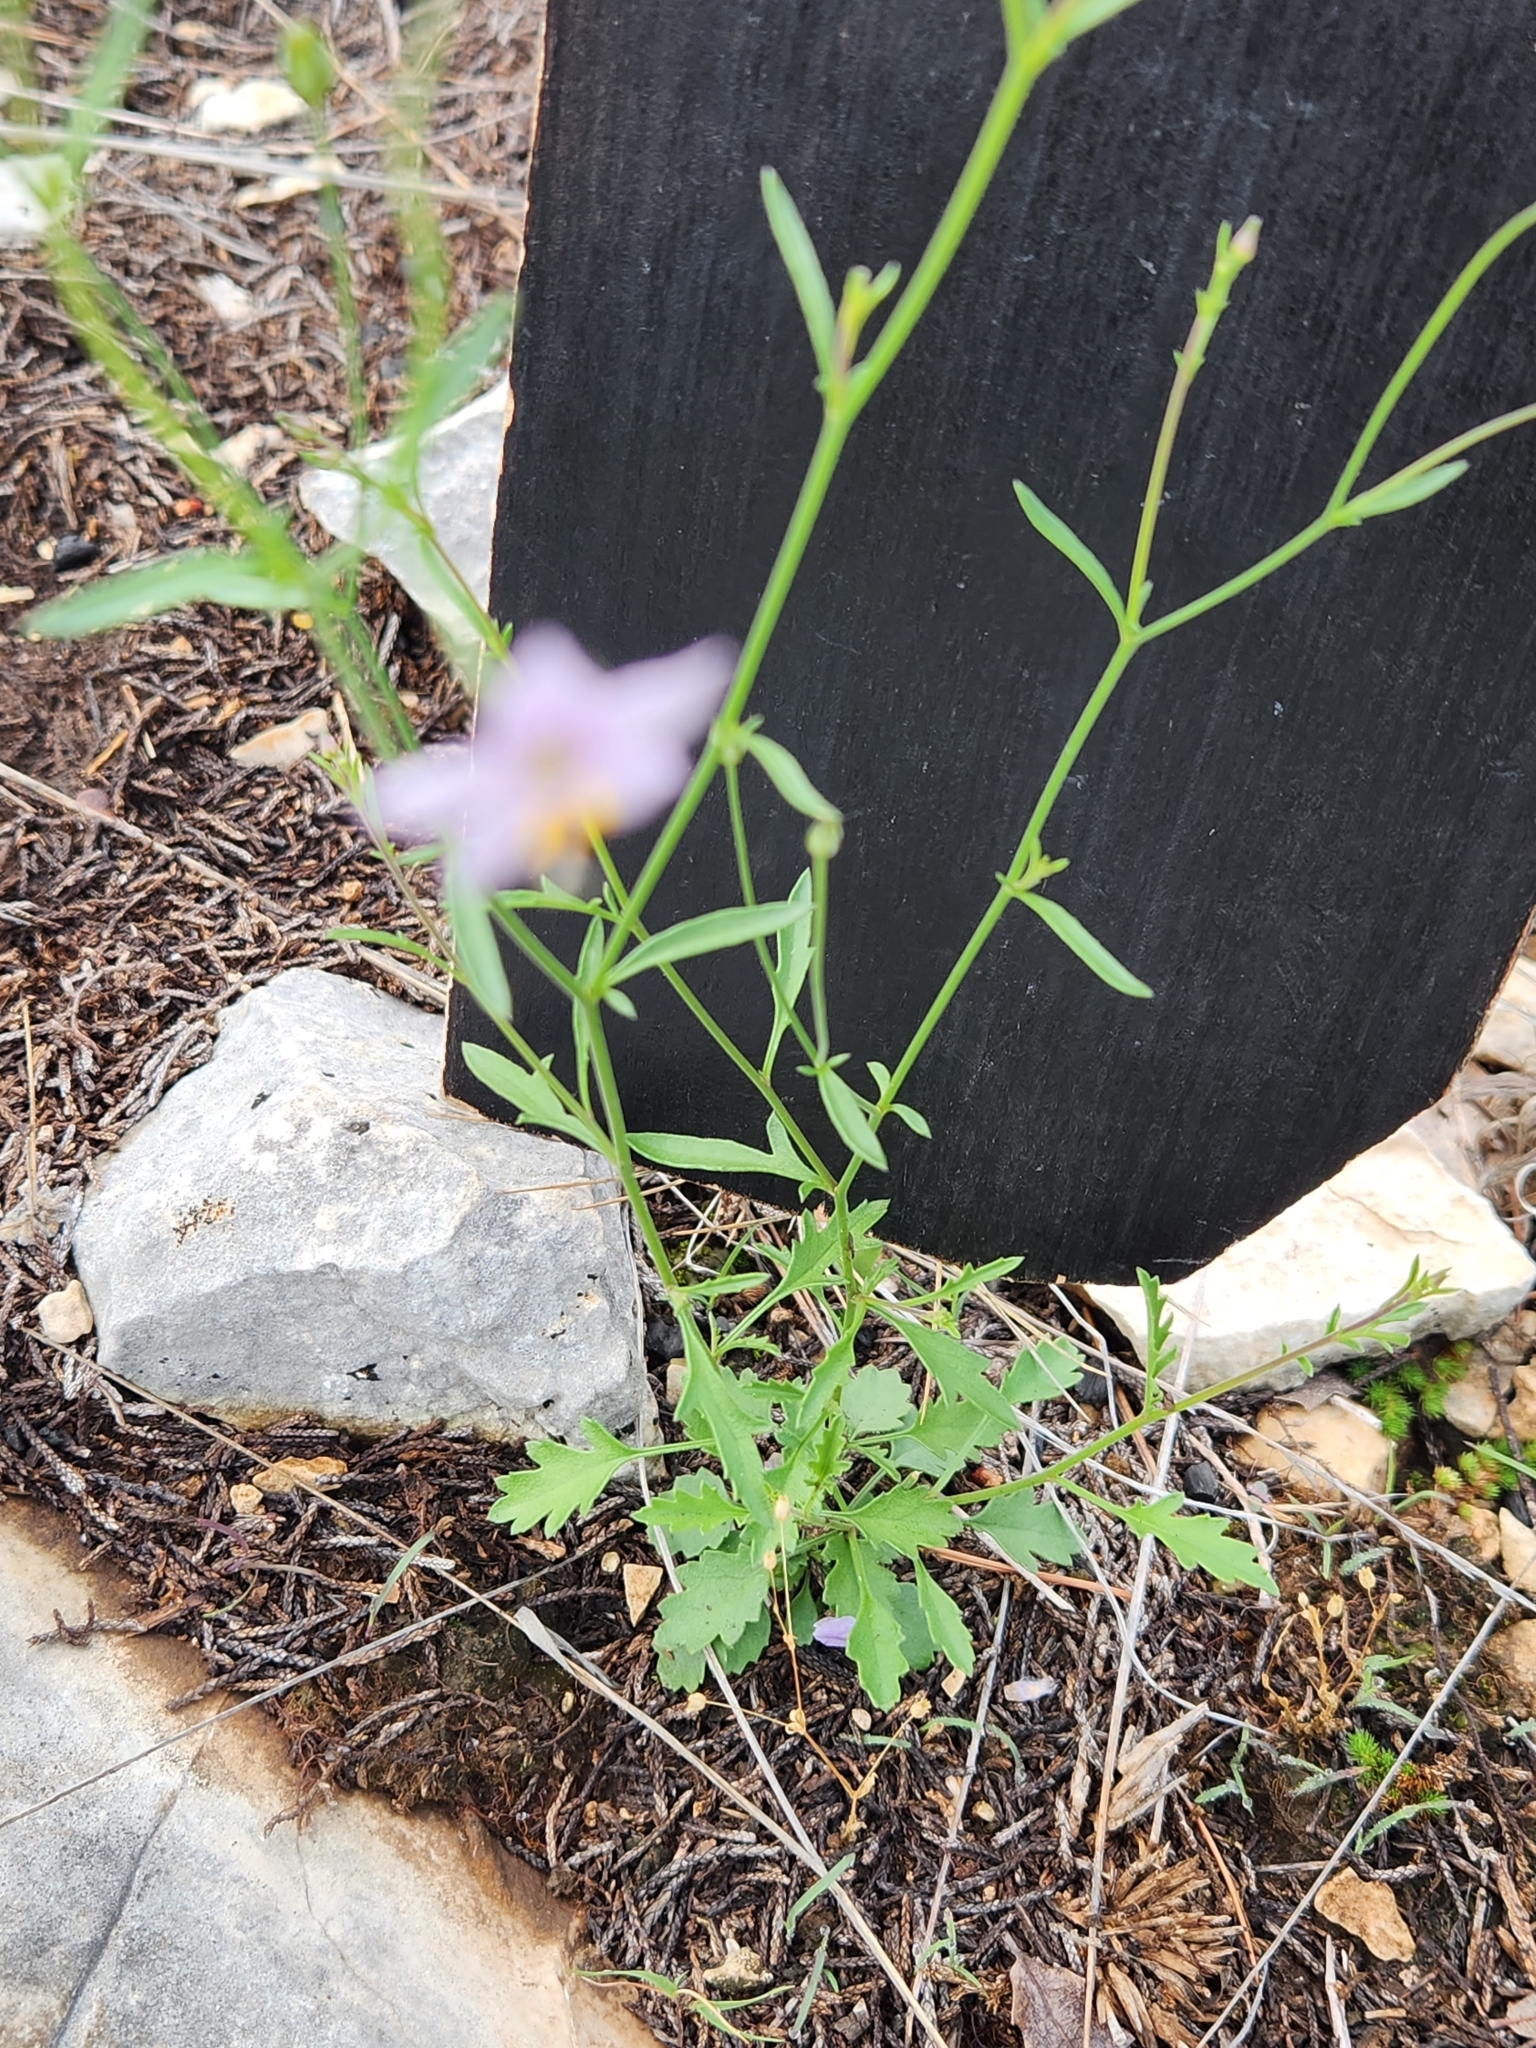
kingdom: Plantae
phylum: Tracheophyta
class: Magnoliopsida
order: Ericales
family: Polemoniaceae
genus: Giliastrum
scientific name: Giliastrum incisum
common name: Splitleaf gilia
